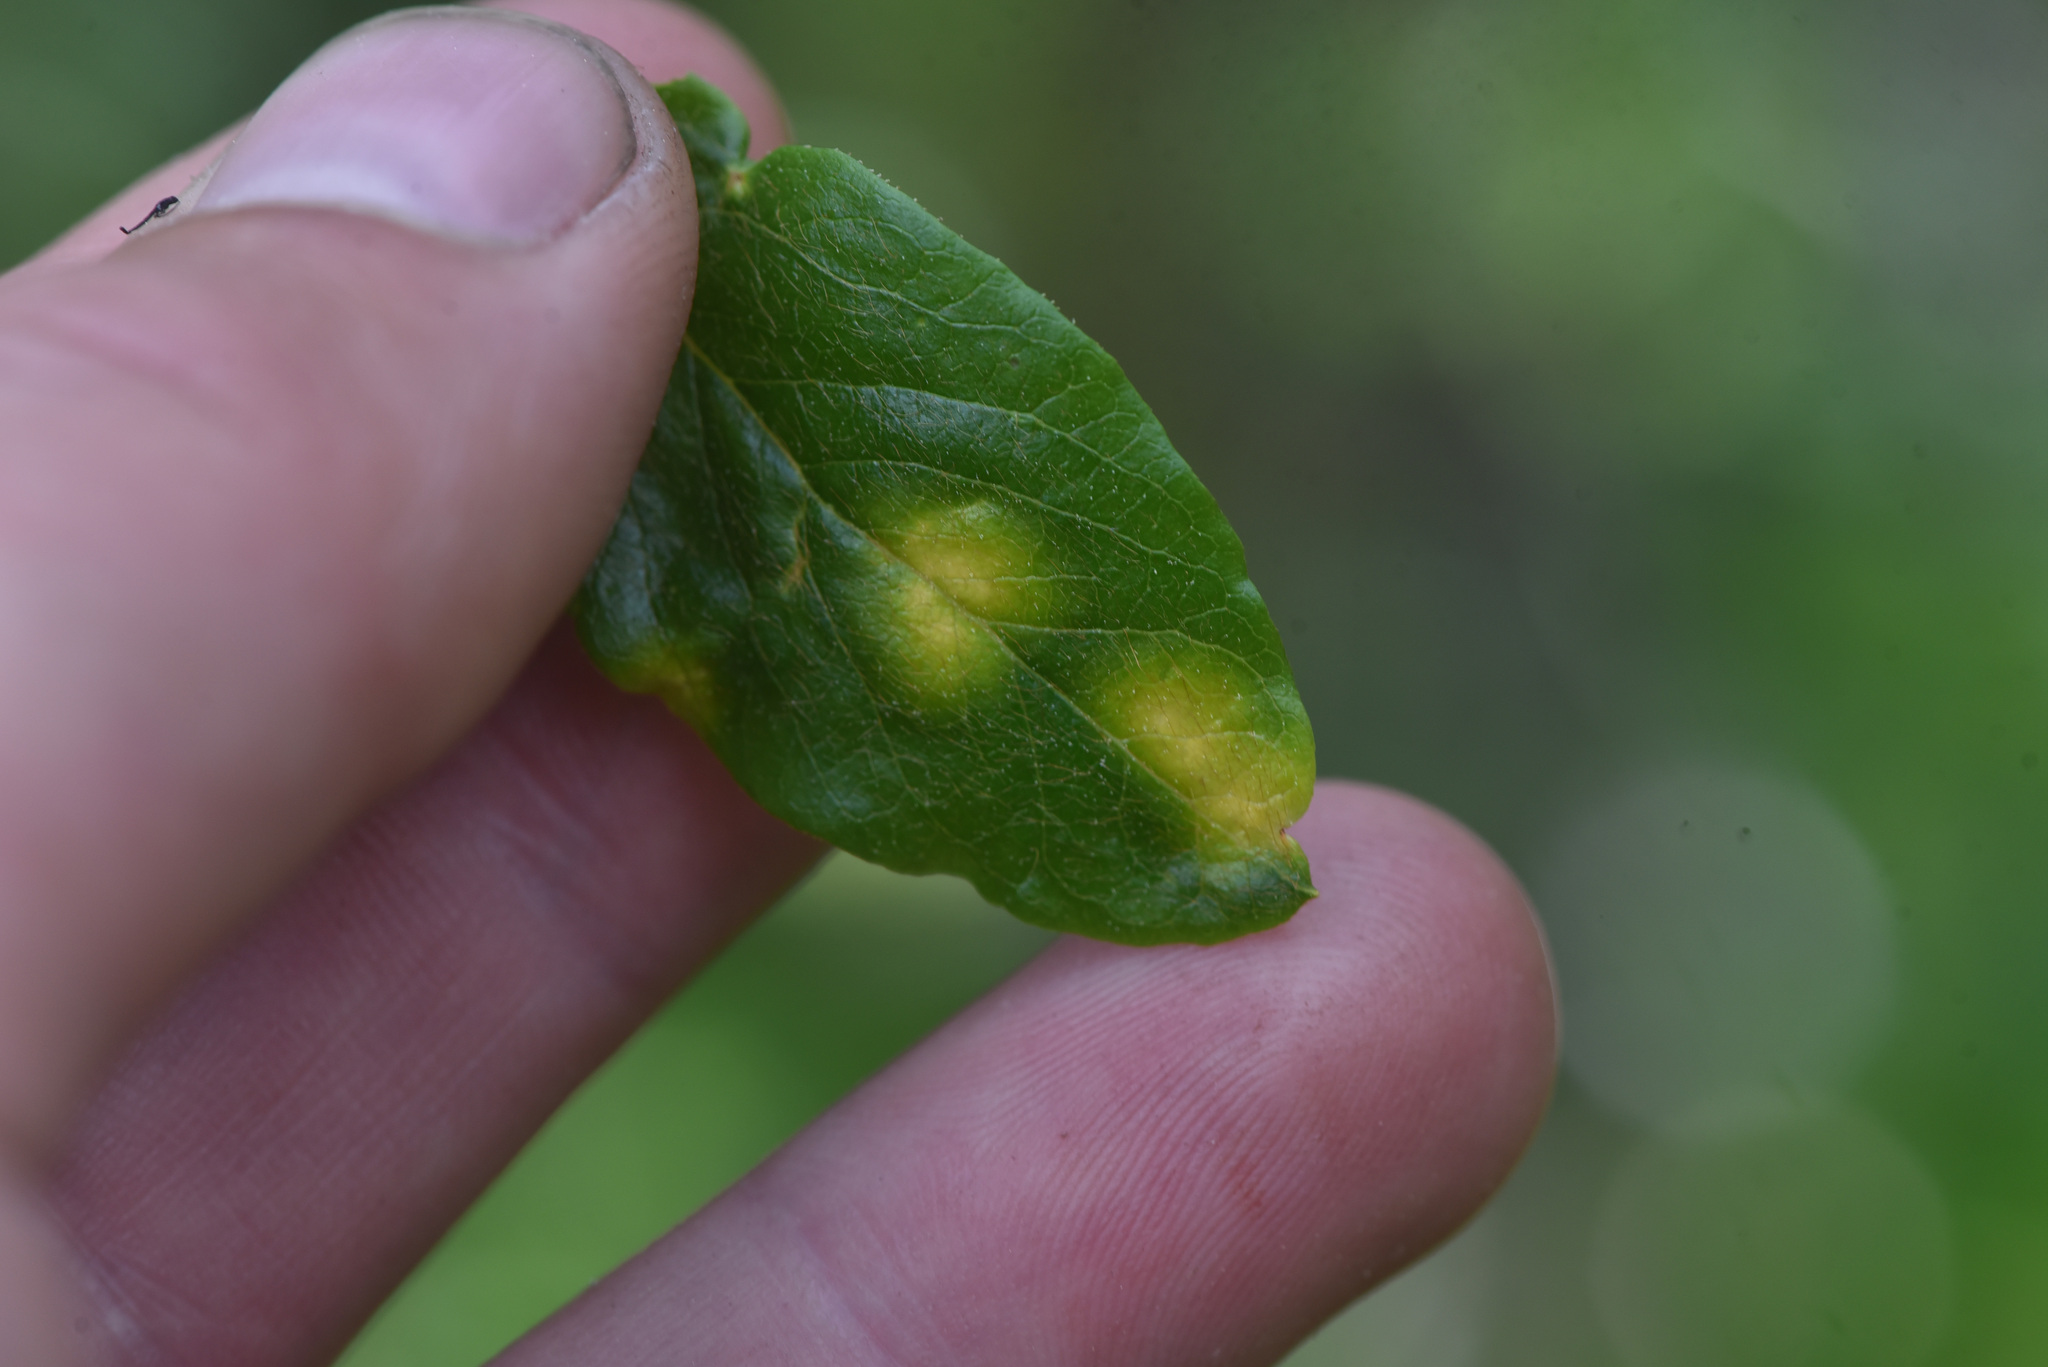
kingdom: Fungi
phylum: Basidiomycota
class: Exobasidiomycetes
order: Exobasidiales
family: Exobasidiaceae
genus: Exobasidium
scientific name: Exobasidium burtii
